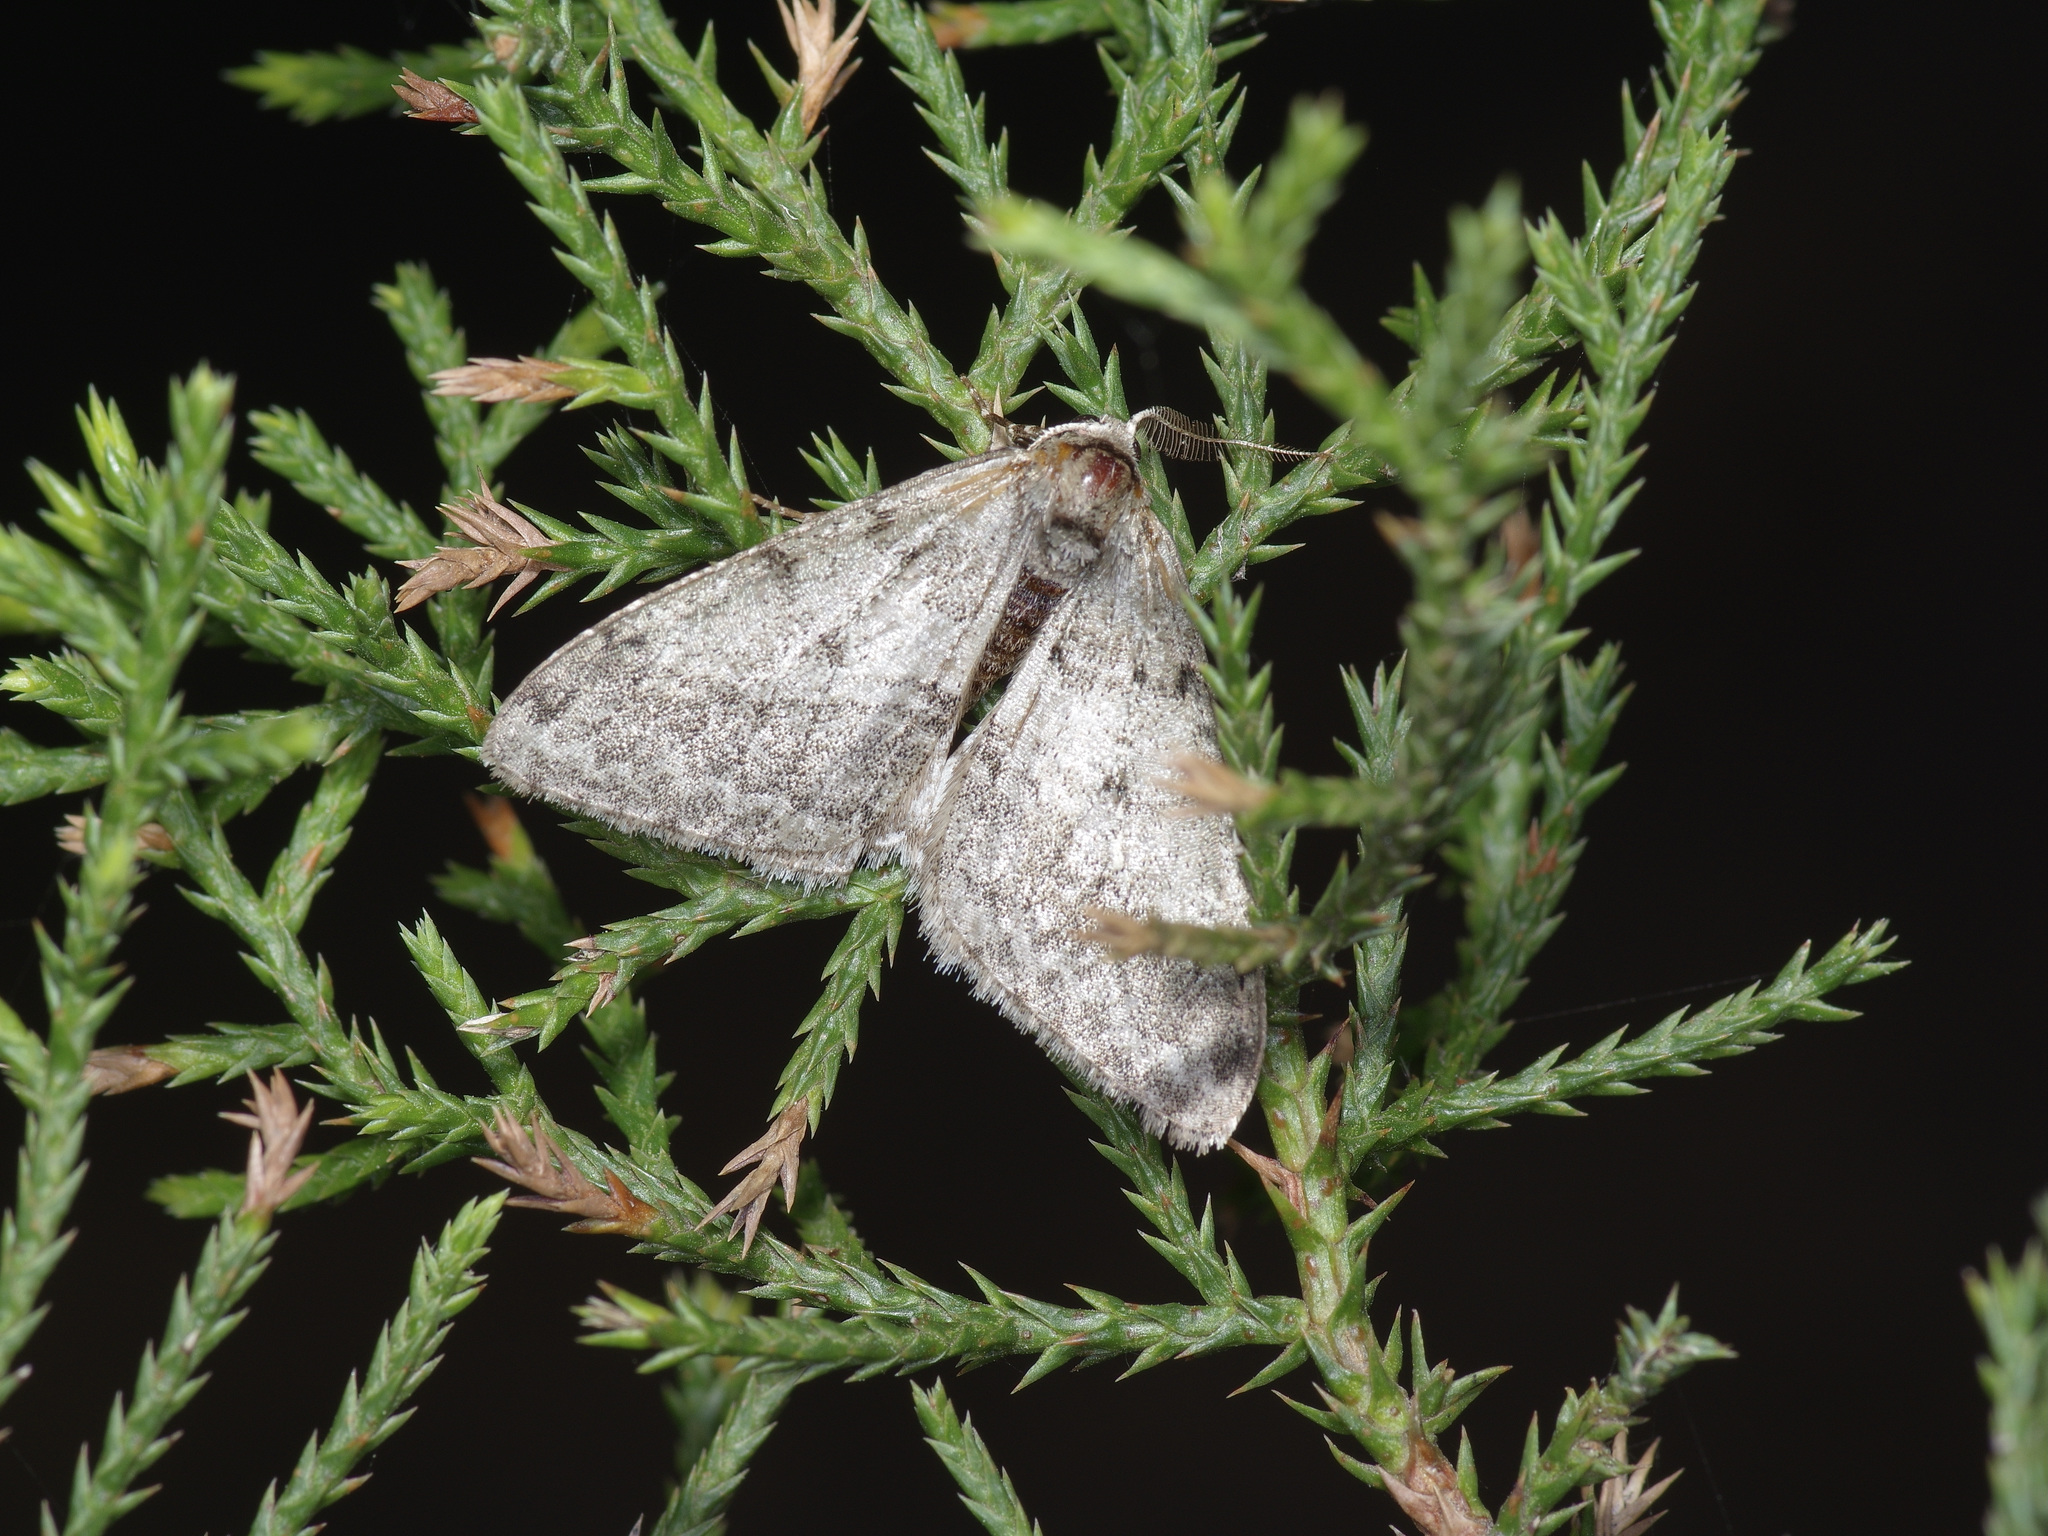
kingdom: Animalia
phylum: Arthropoda
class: Insecta
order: Lepidoptera
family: Geometridae
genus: Phigalia
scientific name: Phigalia strigataria
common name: Small phigalia
